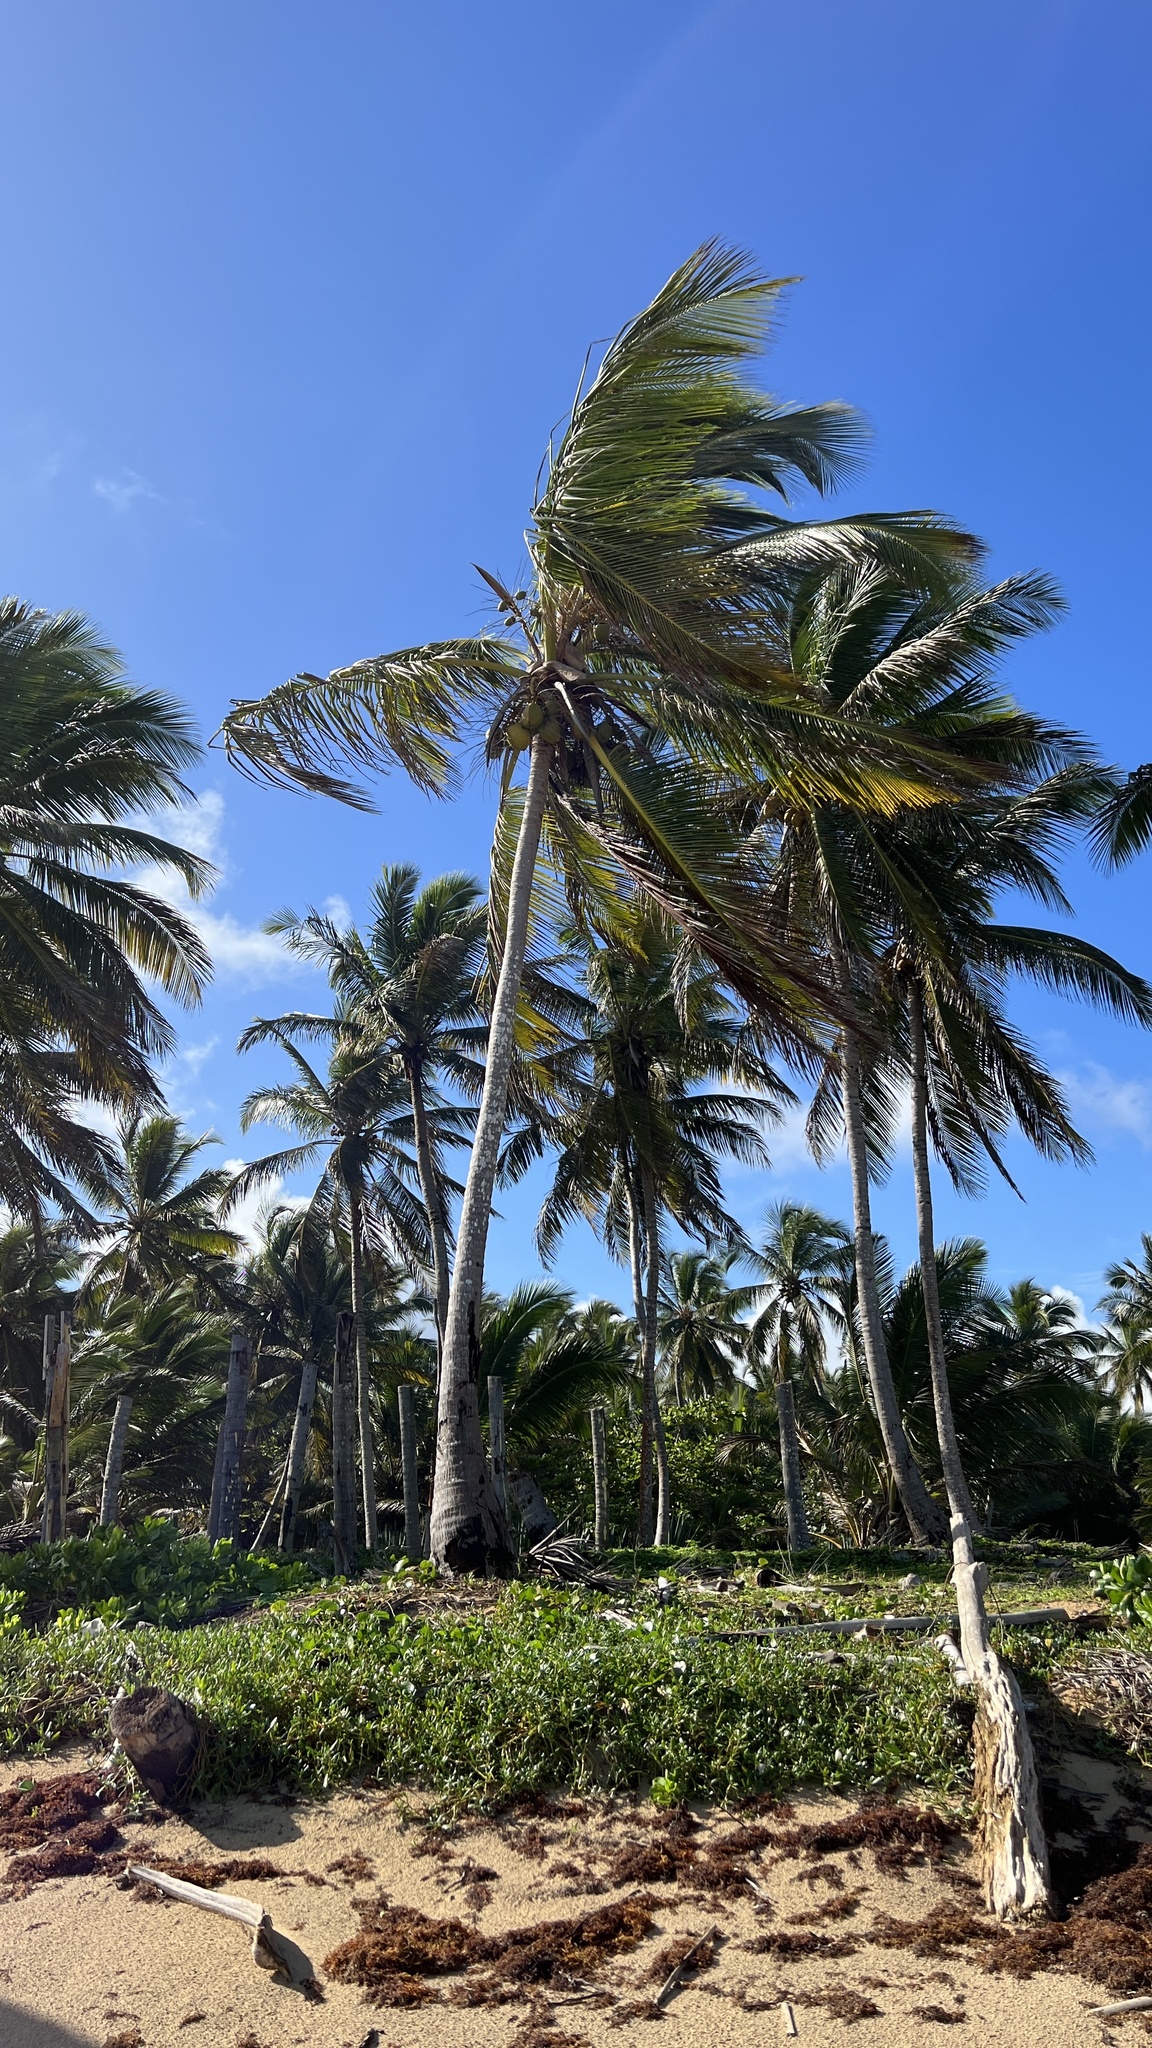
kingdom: Plantae
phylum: Tracheophyta
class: Liliopsida
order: Arecales
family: Arecaceae
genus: Cocos
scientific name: Cocos nucifera
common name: Coconut palm
